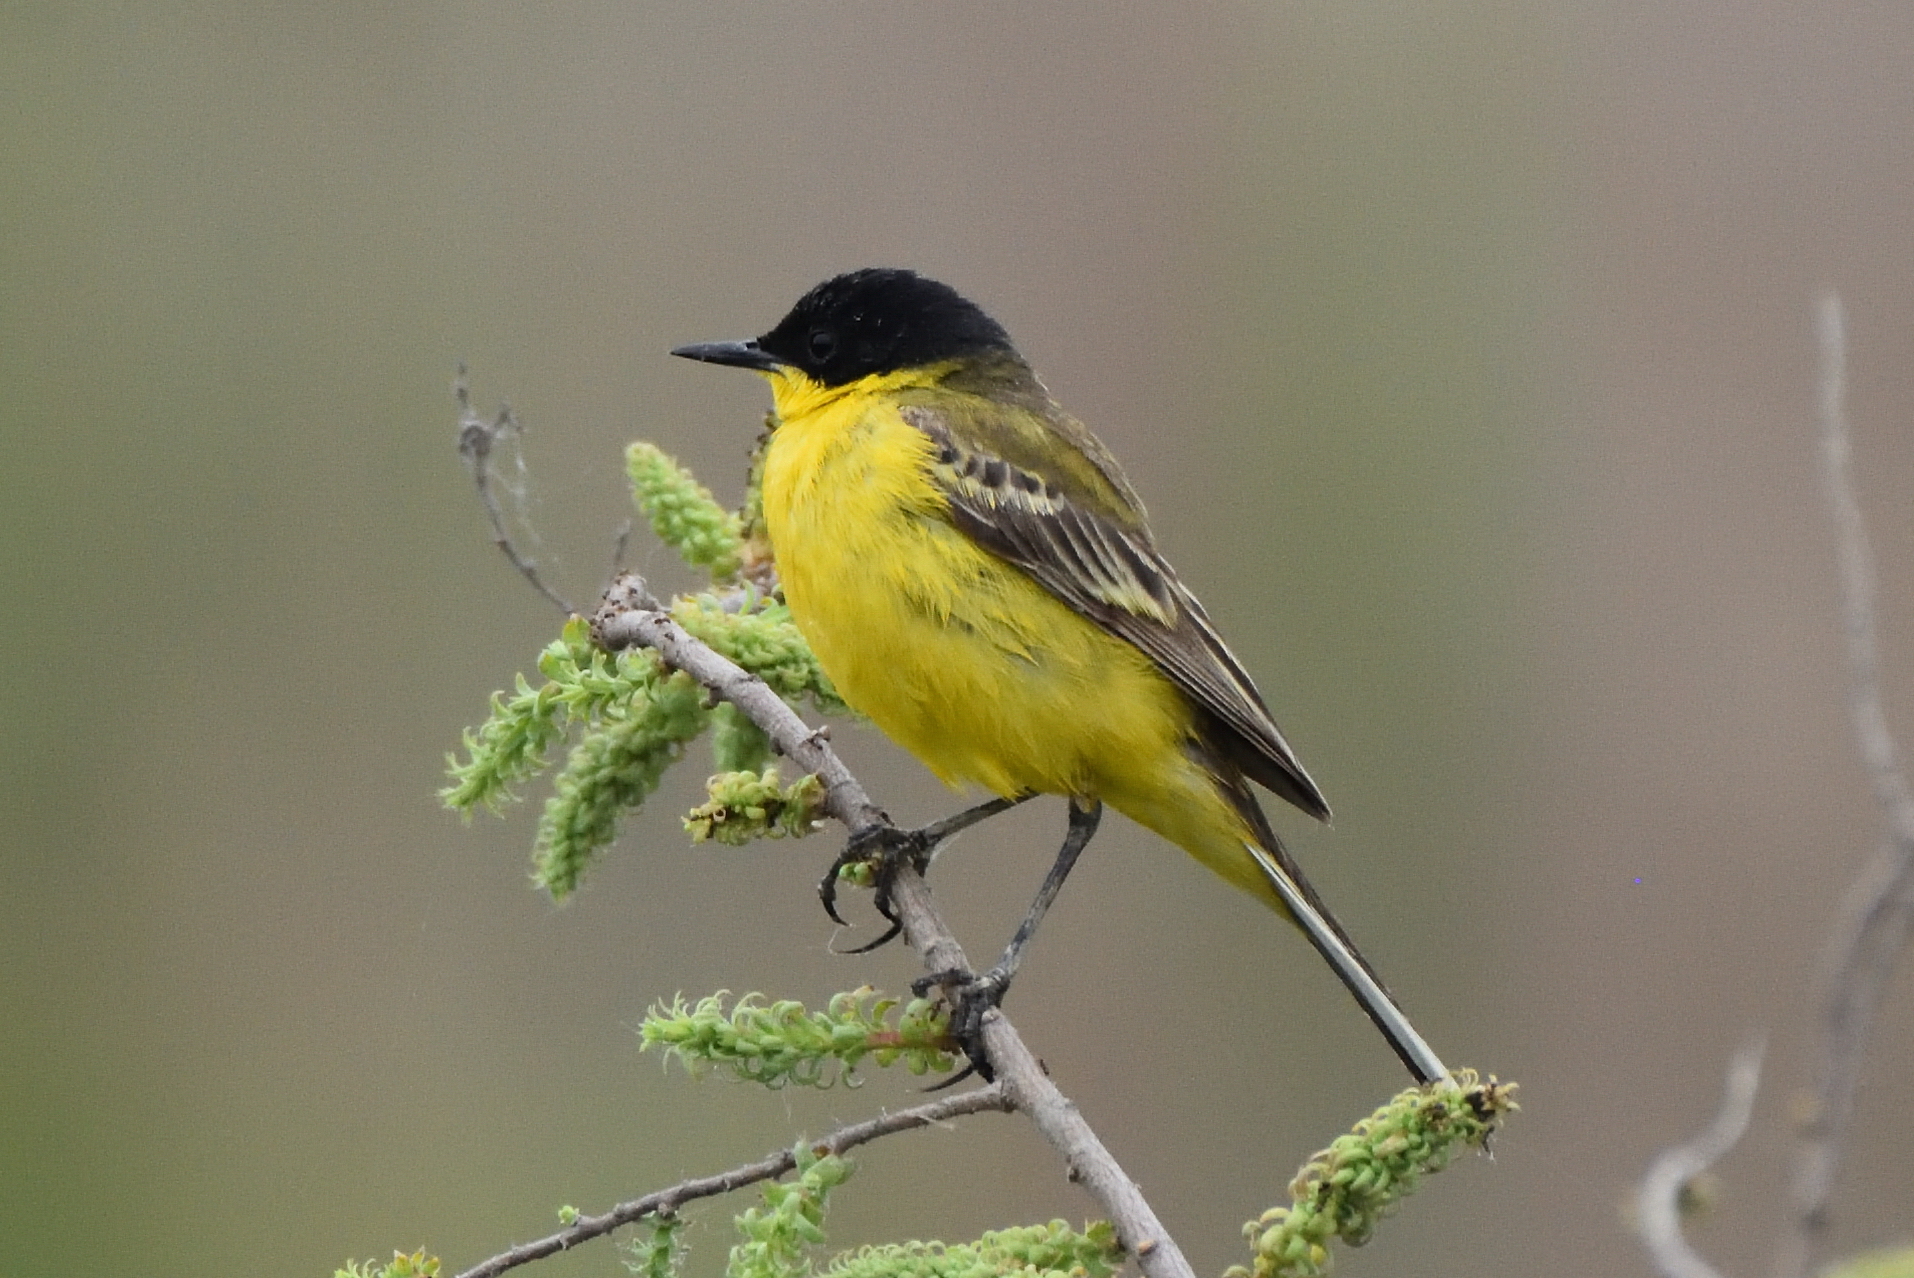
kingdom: Animalia
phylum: Chordata
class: Aves
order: Passeriformes
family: Motacillidae
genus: Motacilla
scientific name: Motacilla flava
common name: Western yellow wagtail
